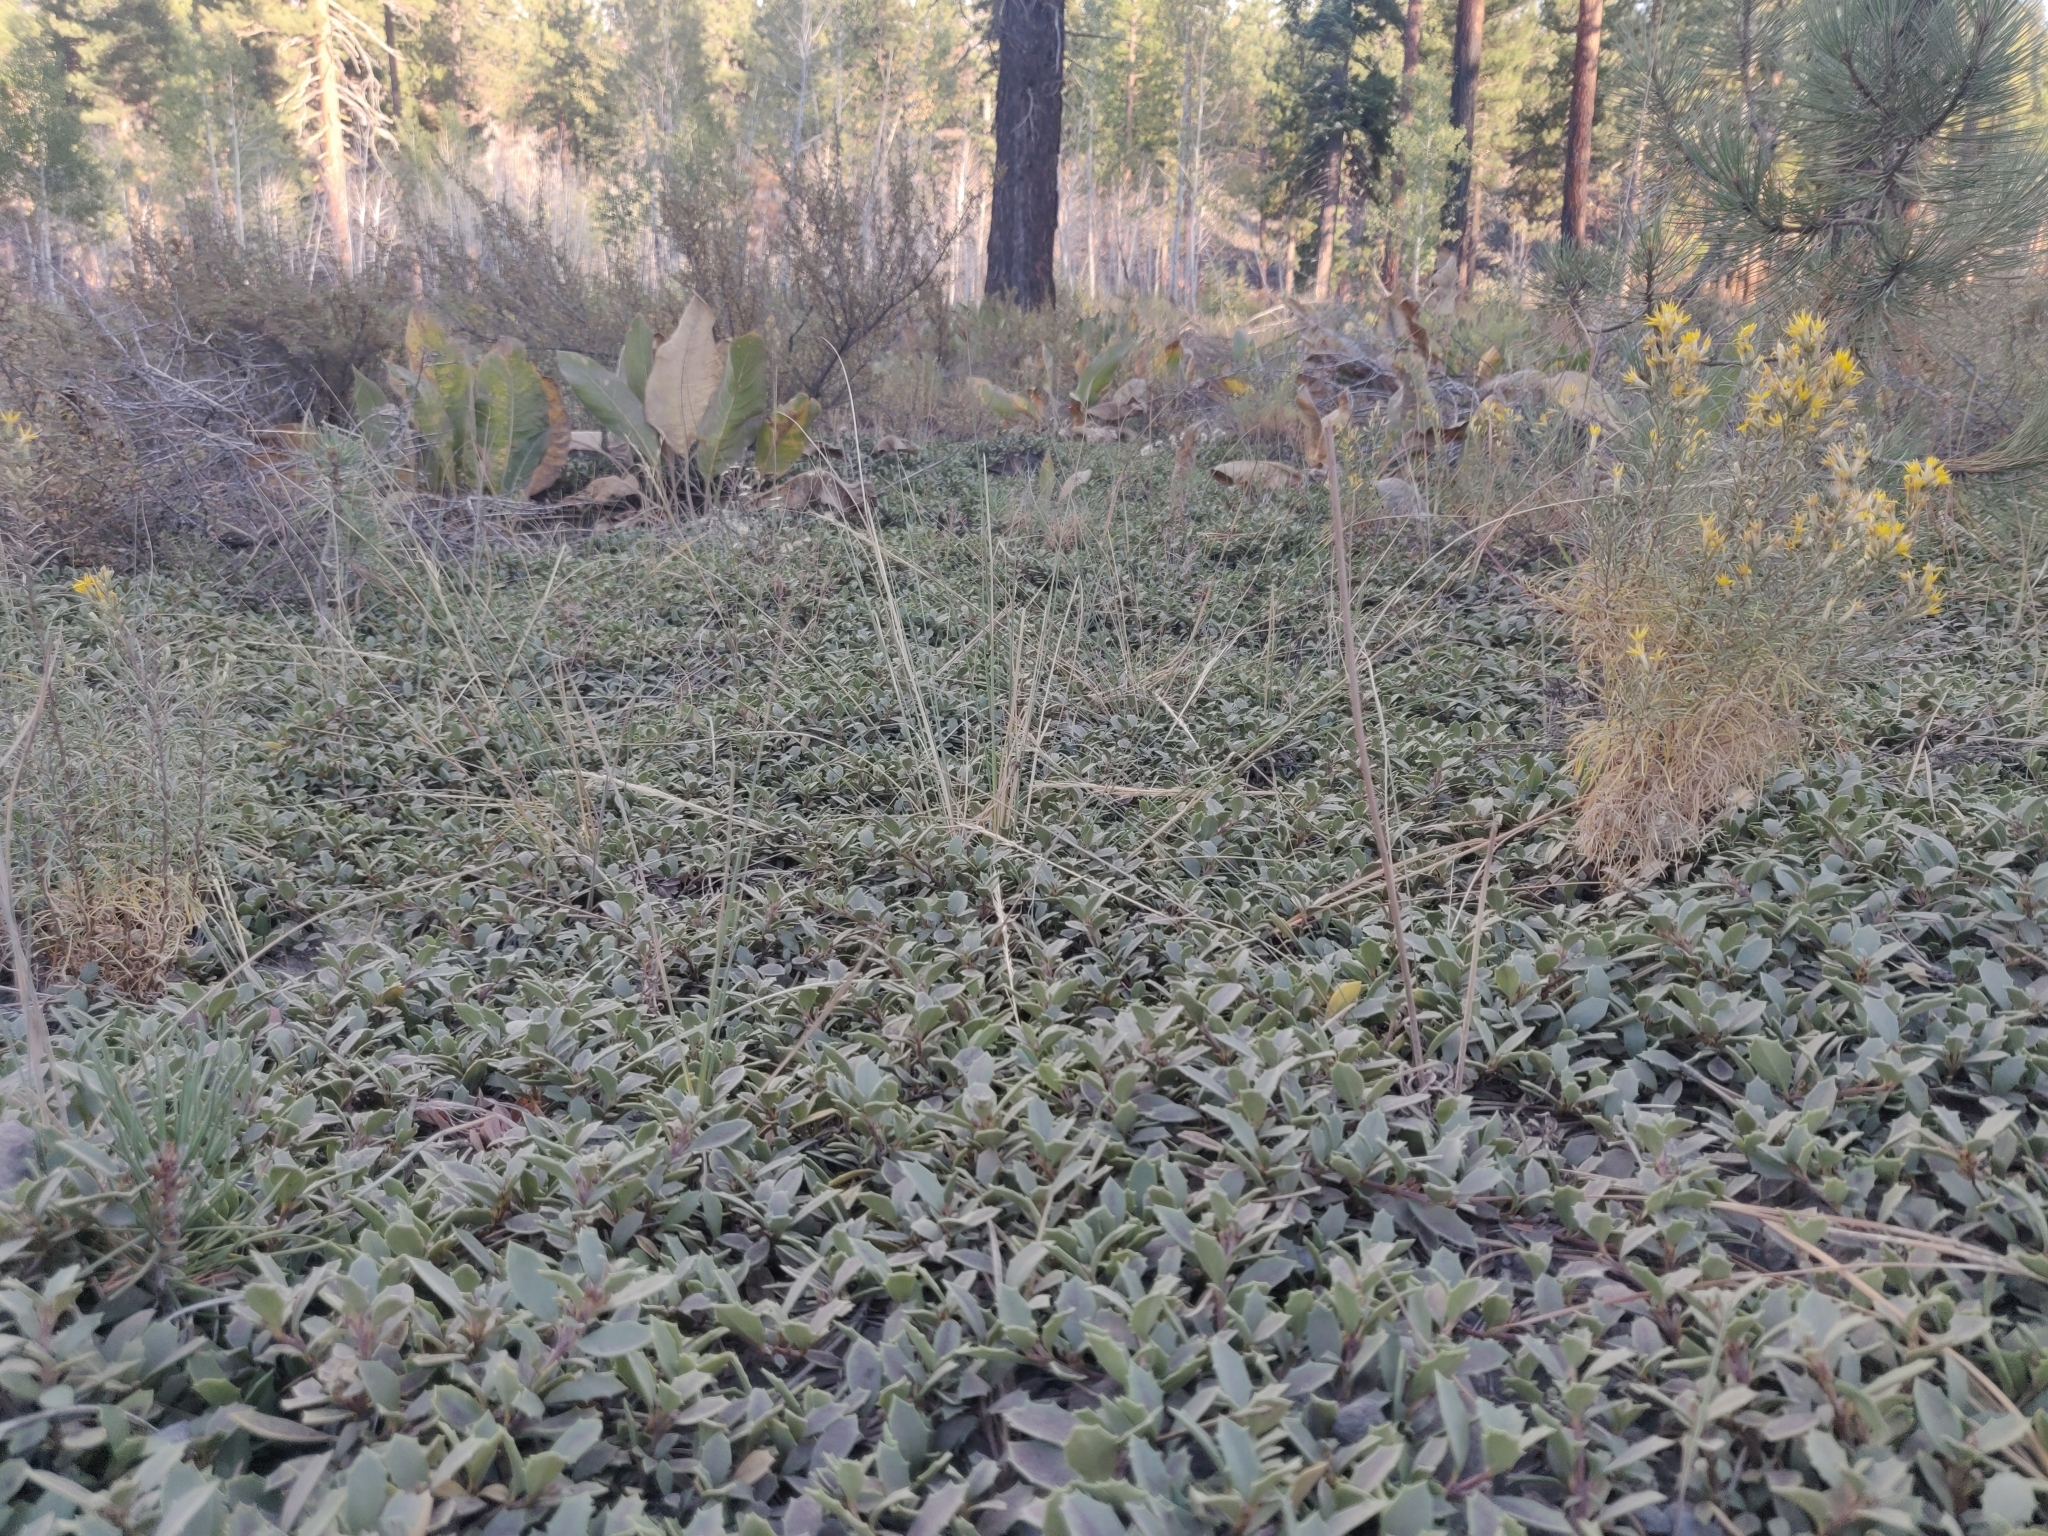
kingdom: Plantae
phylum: Tracheophyta
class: Magnoliopsida
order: Rosales
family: Rhamnaceae
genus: Ceanothus
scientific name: Ceanothus prostratus
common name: Mahala-mat
